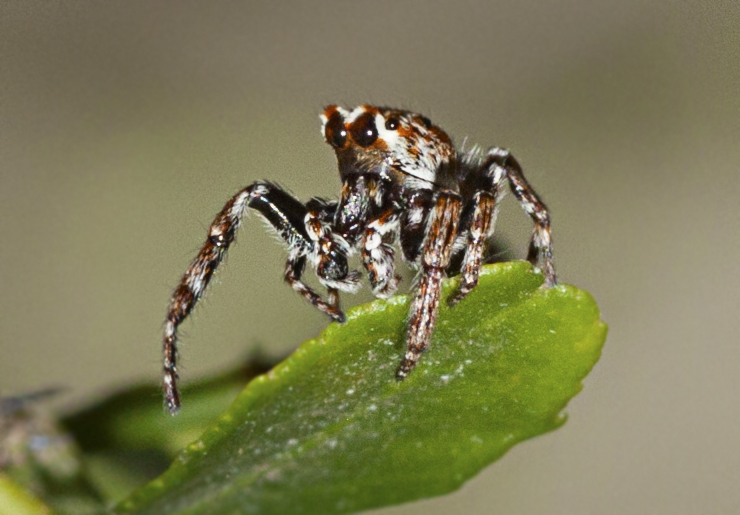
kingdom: Animalia
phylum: Arthropoda
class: Arachnida
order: Araneae
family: Salticidae
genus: Paraphilaeus
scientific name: Paraphilaeus daemeli
